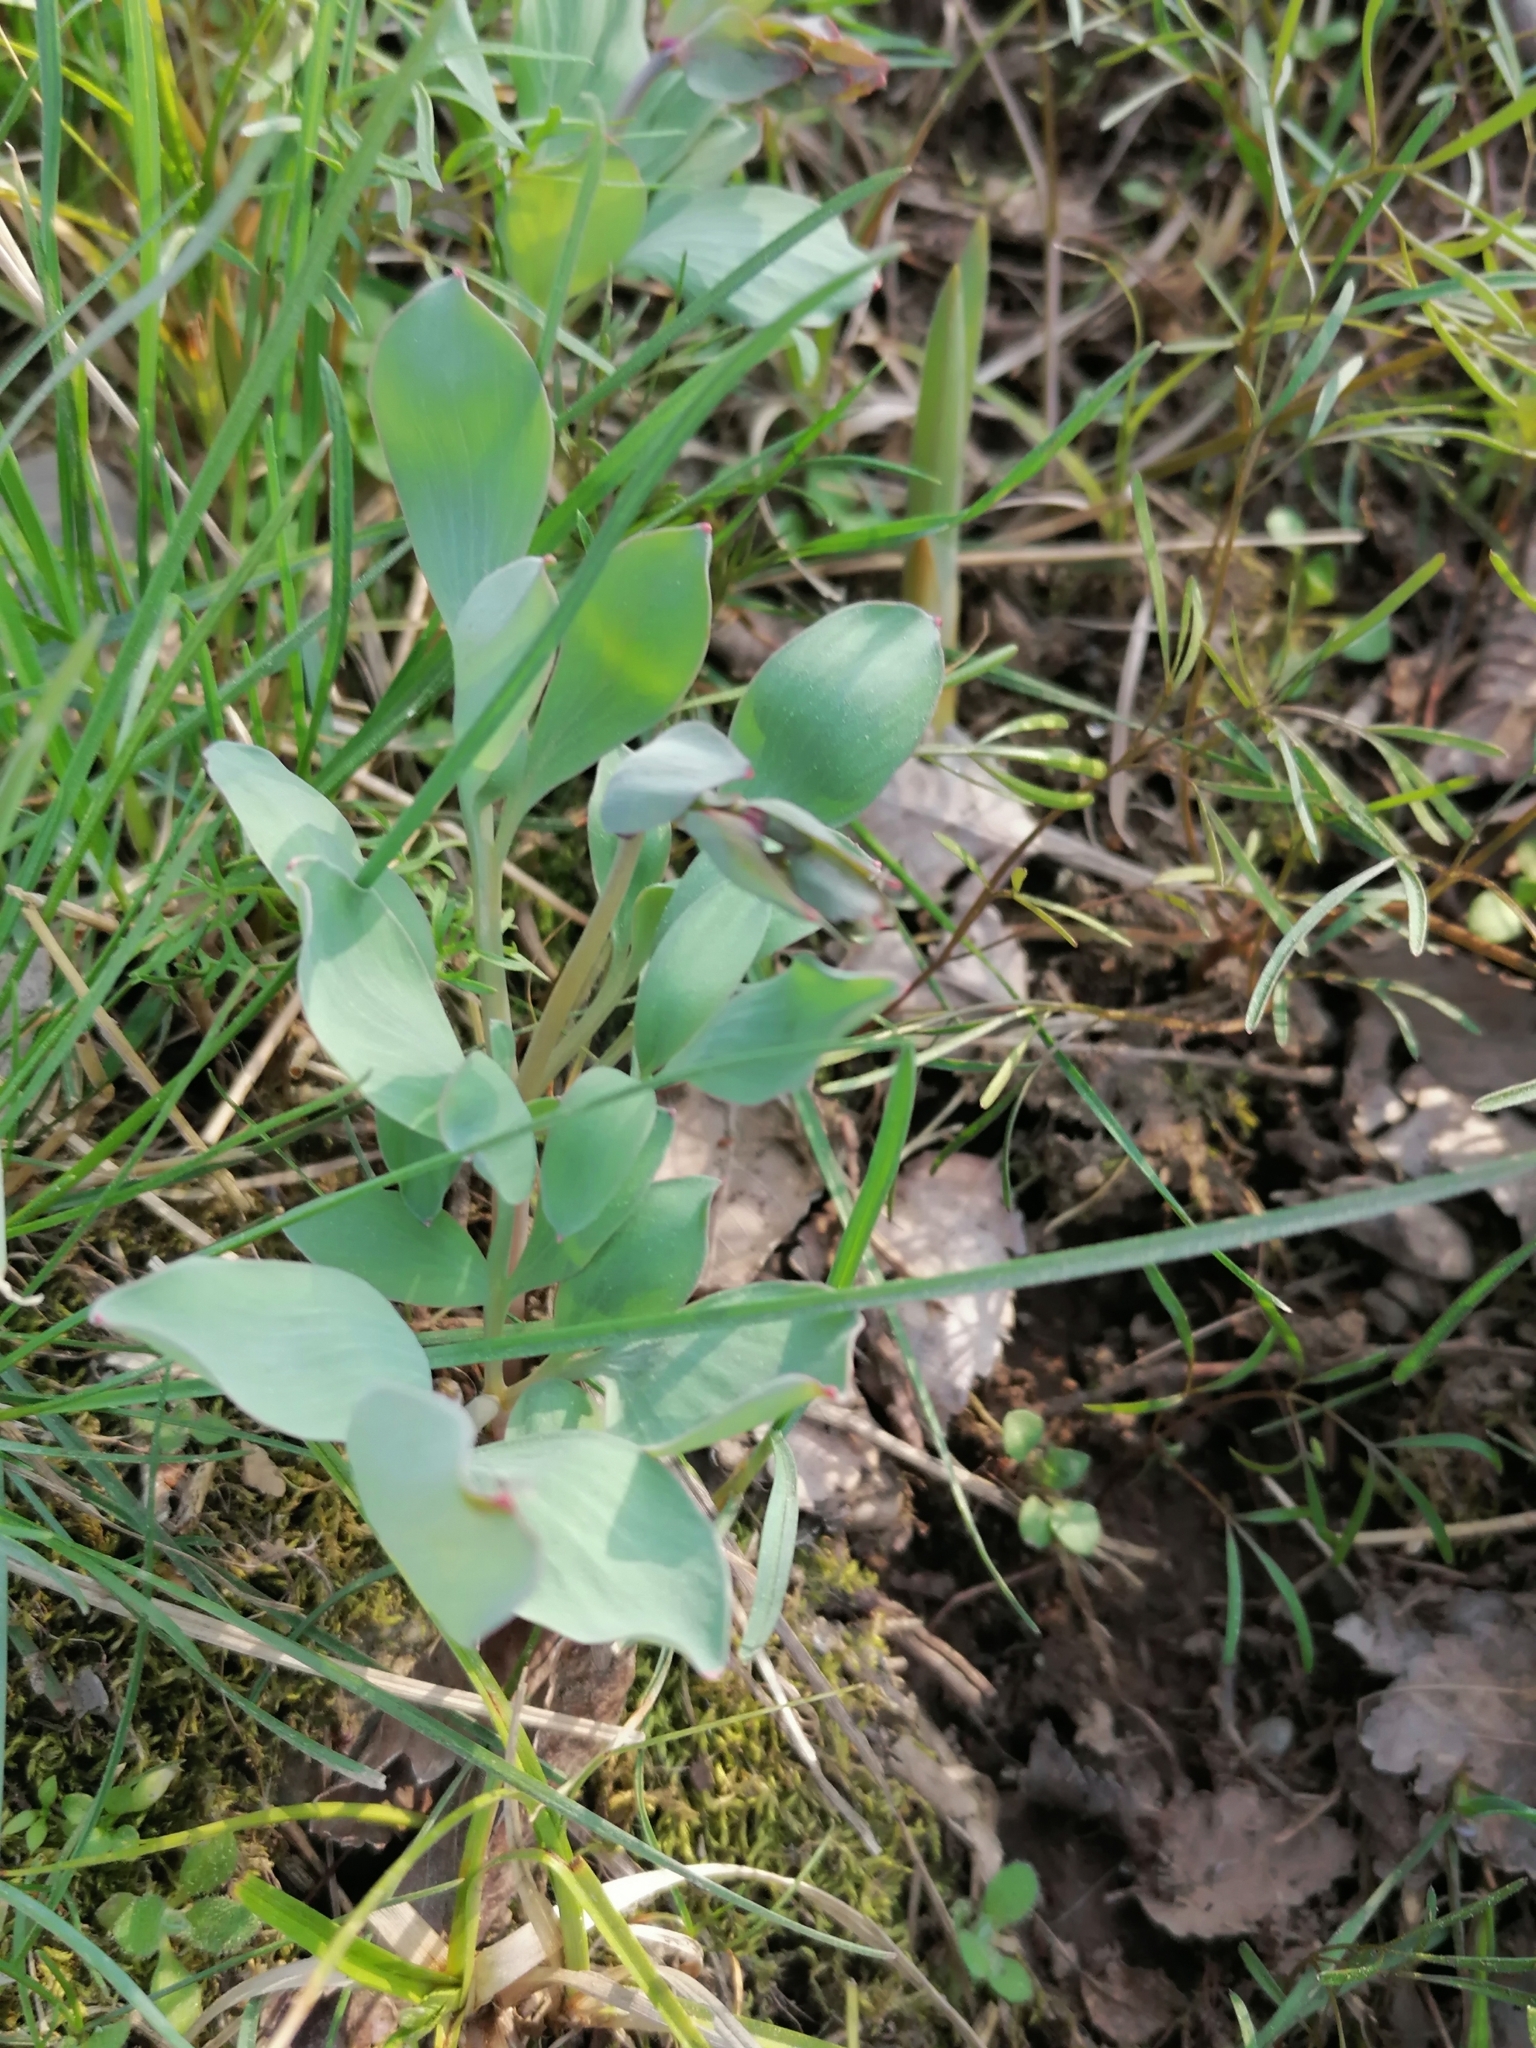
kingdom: Plantae
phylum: Tracheophyta
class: Magnoliopsida
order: Ranunculales
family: Papaveraceae
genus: Corydalis
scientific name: Corydalis ledebouriana
